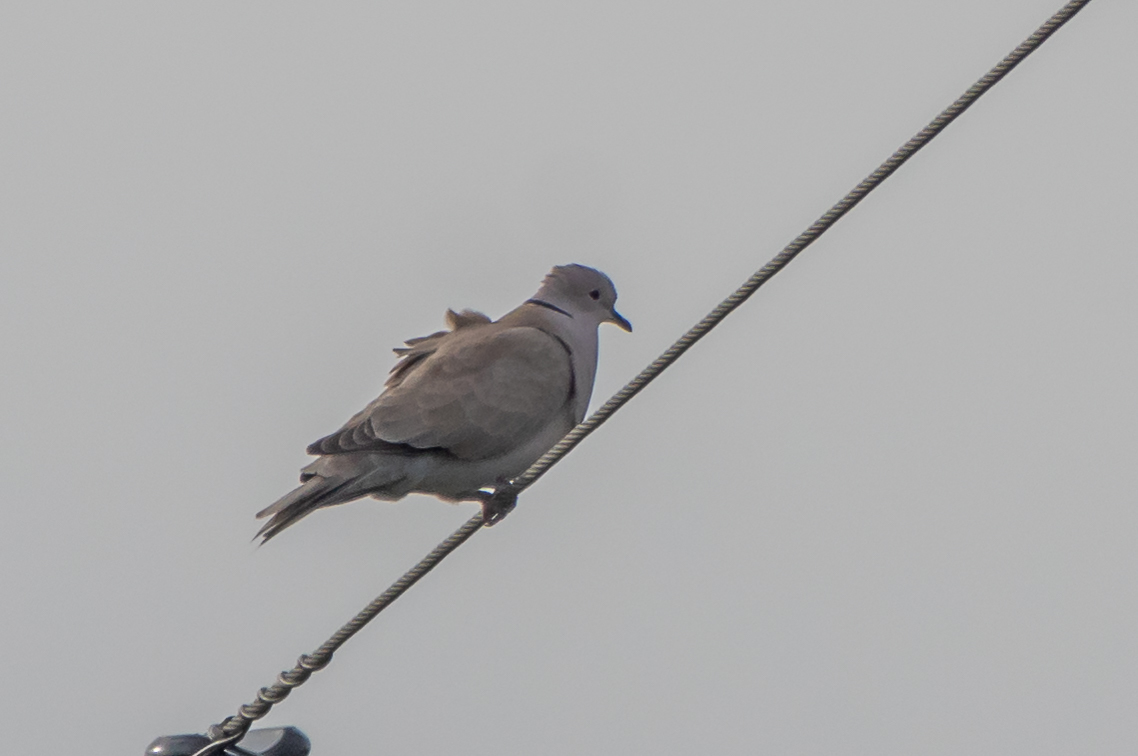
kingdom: Animalia
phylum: Chordata
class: Aves
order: Columbiformes
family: Columbidae
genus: Streptopelia
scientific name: Streptopelia decaocto
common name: Eurasian collared dove
